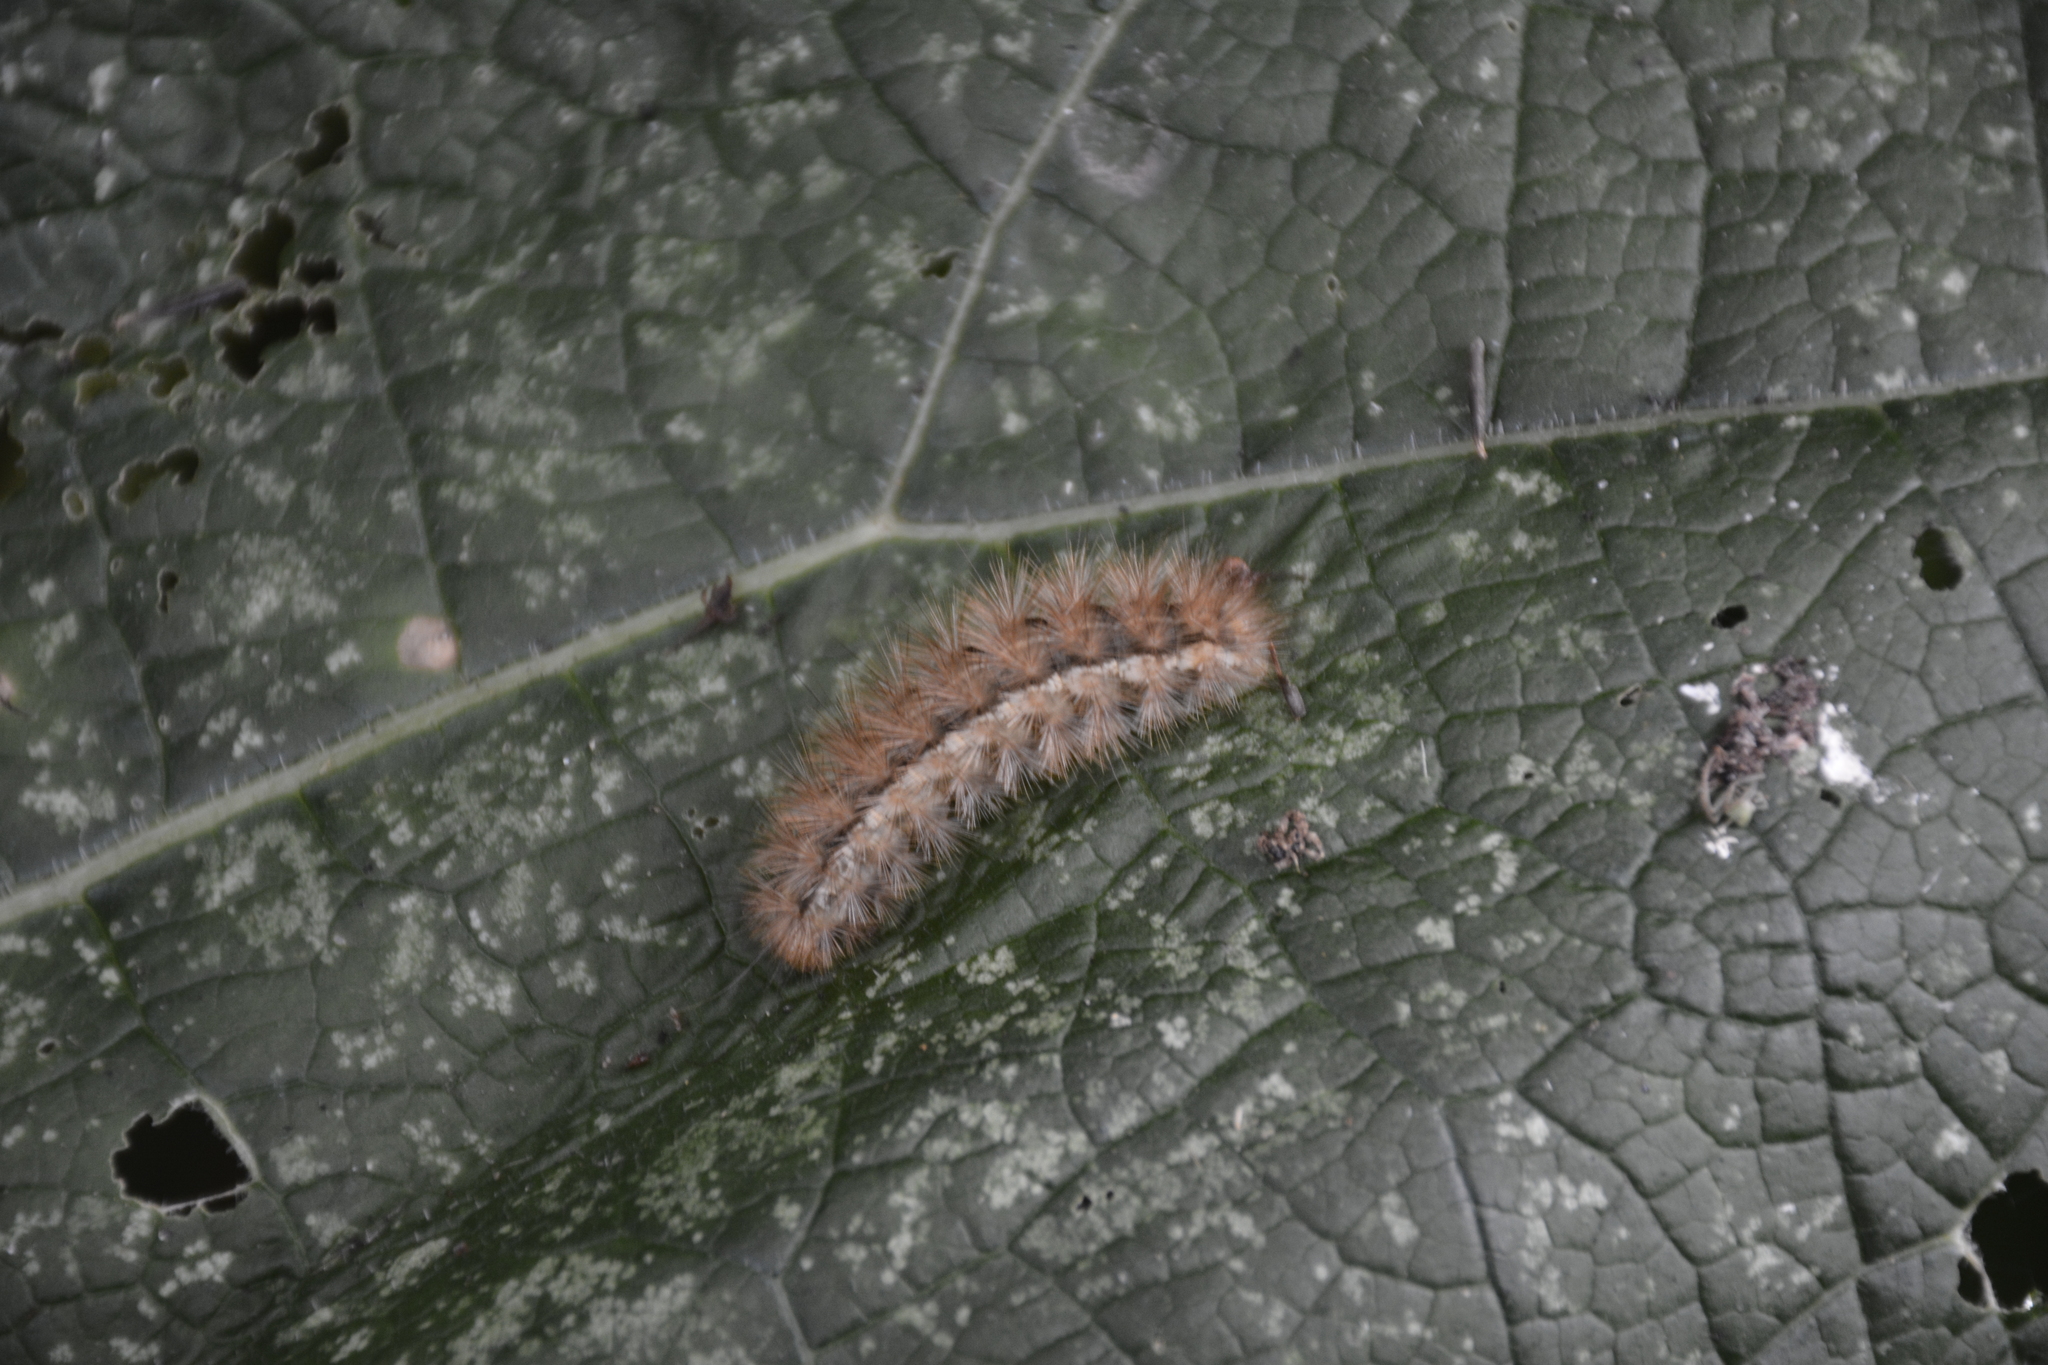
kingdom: Animalia
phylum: Arthropoda
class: Insecta
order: Lepidoptera
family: Erebidae
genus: Spilarctia
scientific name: Spilarctia lutea
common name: Buff ermine
